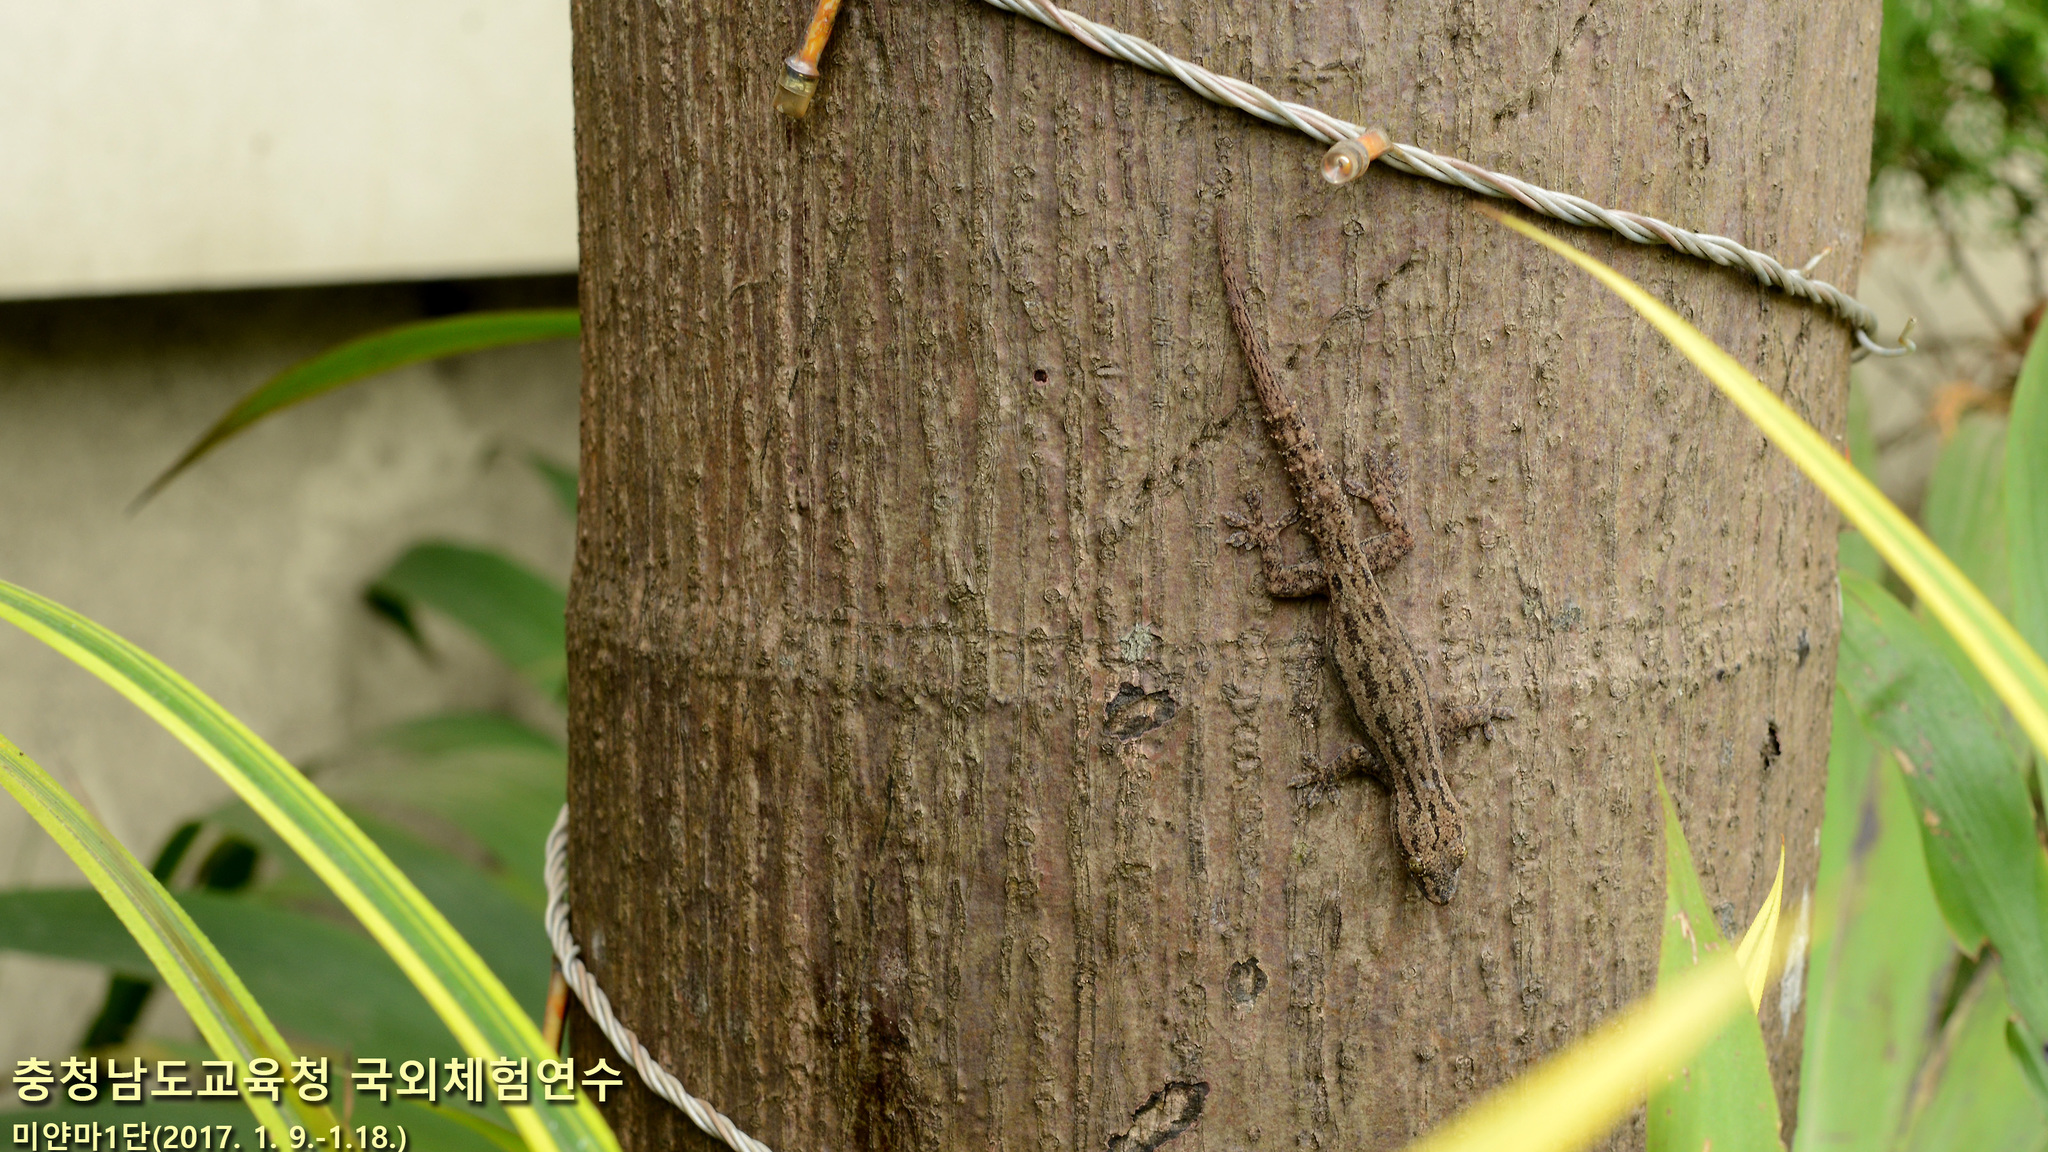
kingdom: Animalia
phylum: Chordata
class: Squamata
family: Gekkonidae
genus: Hemidactylus
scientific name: Hemidactylus frenatus
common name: Common house gecko
